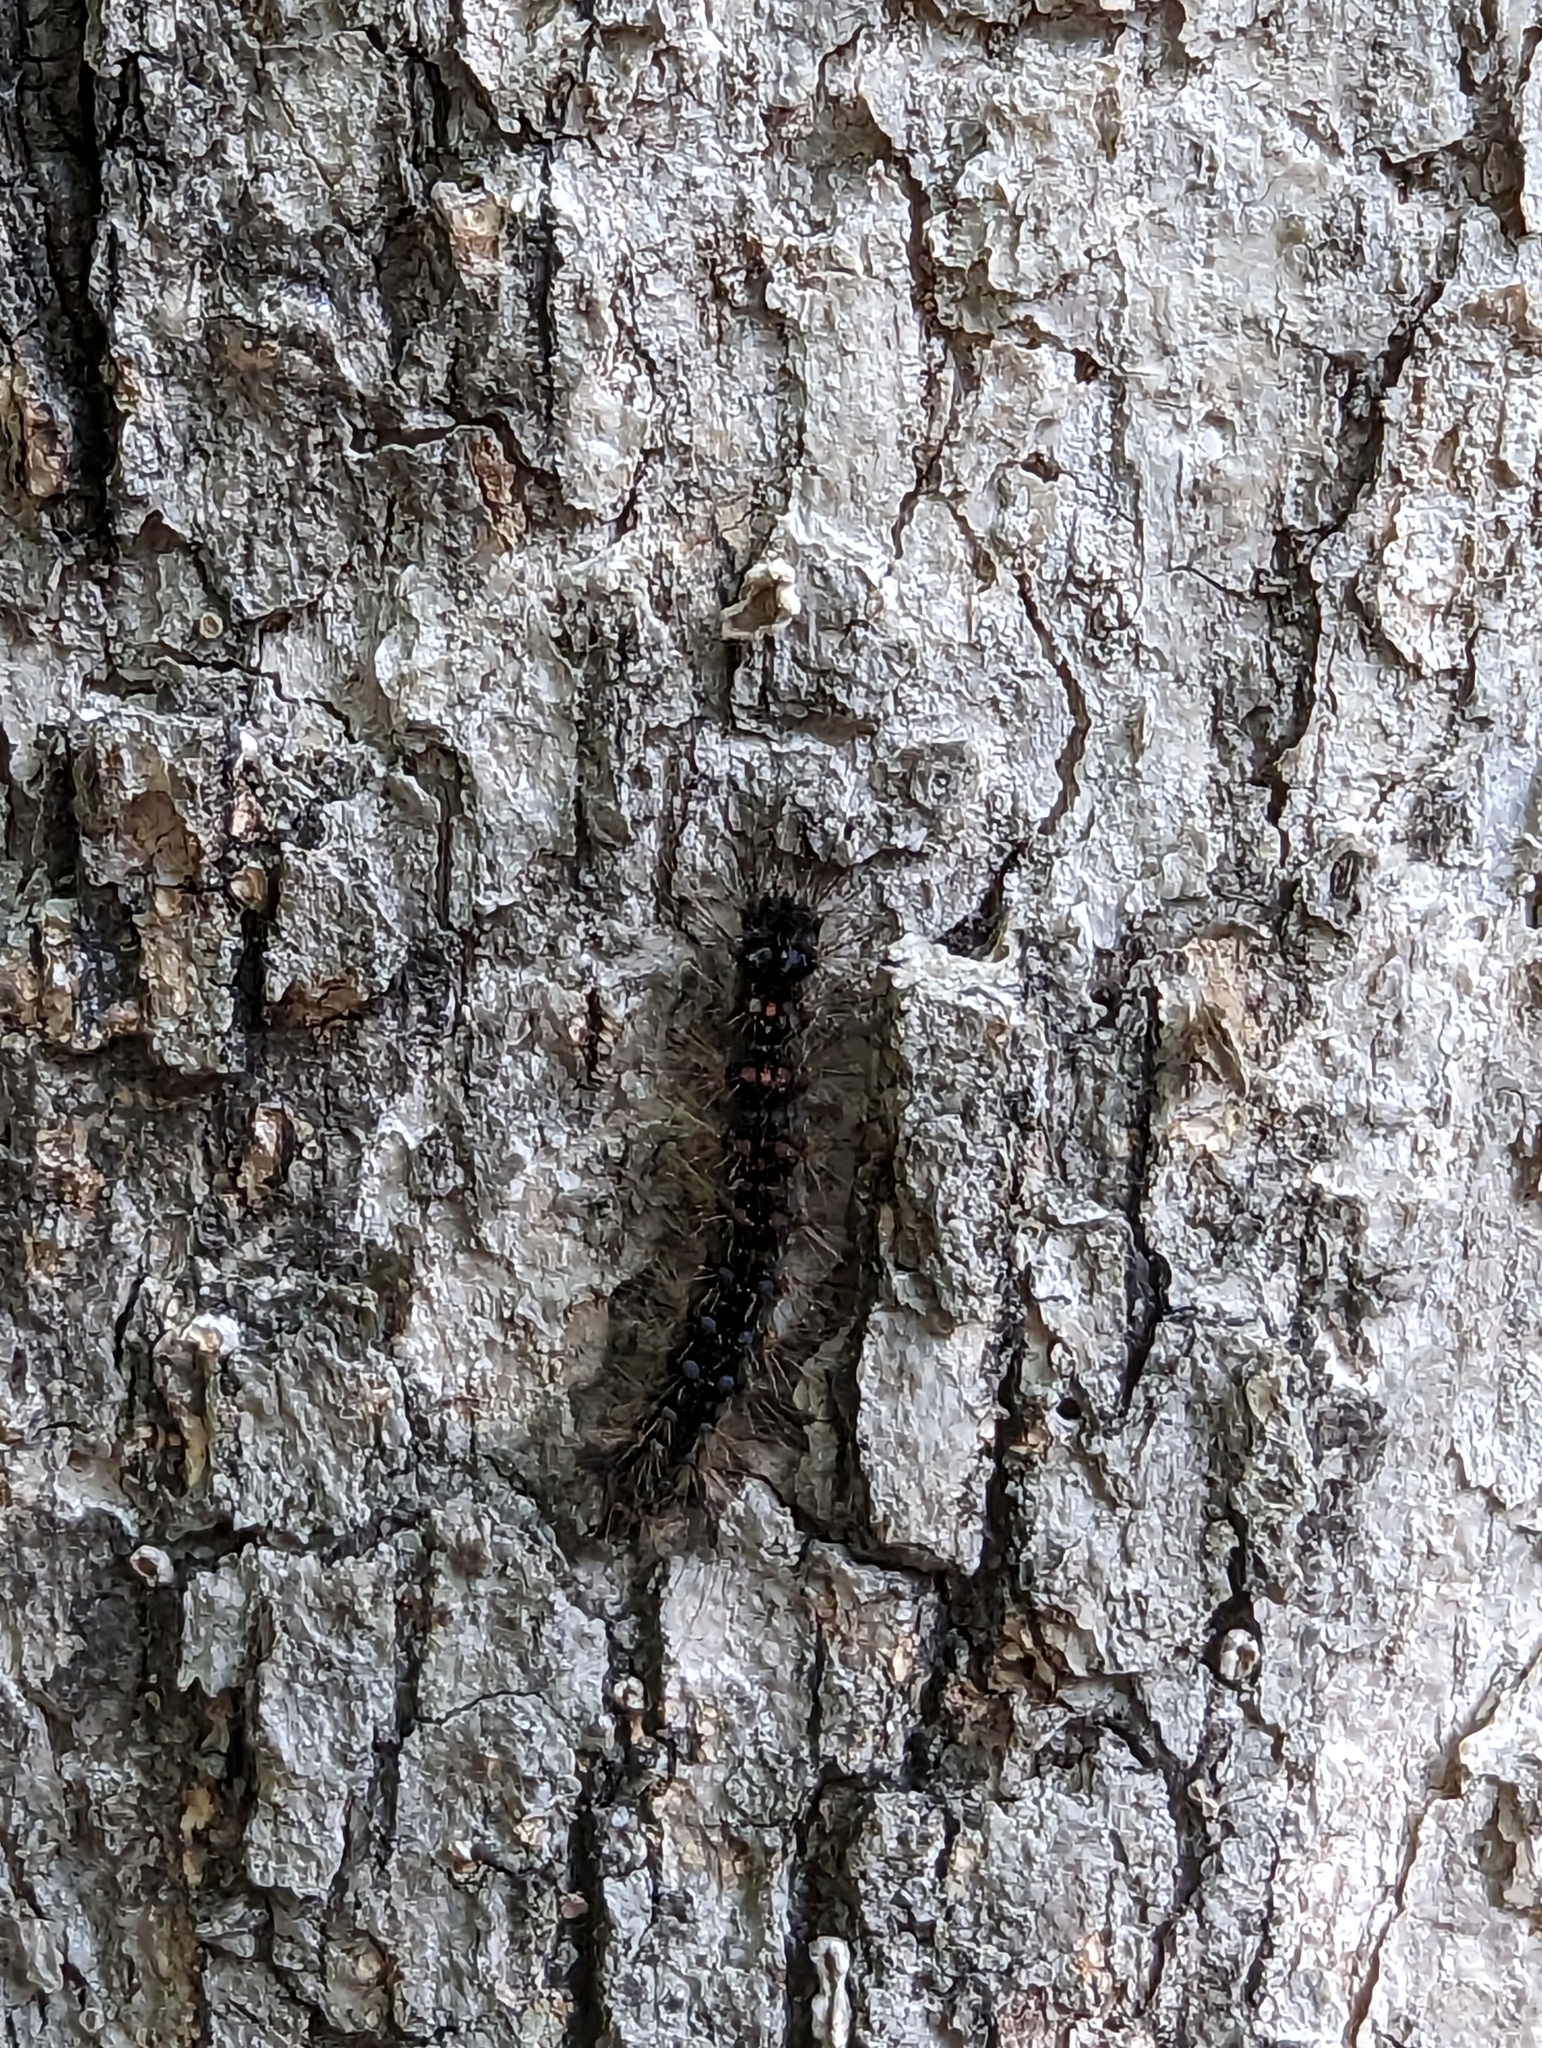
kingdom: Animalia
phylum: Arthropoda
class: Insecta
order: Lepidoptera
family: Erebidae
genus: Lymantria
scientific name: Lymantria dispar
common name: Gypsy moth
